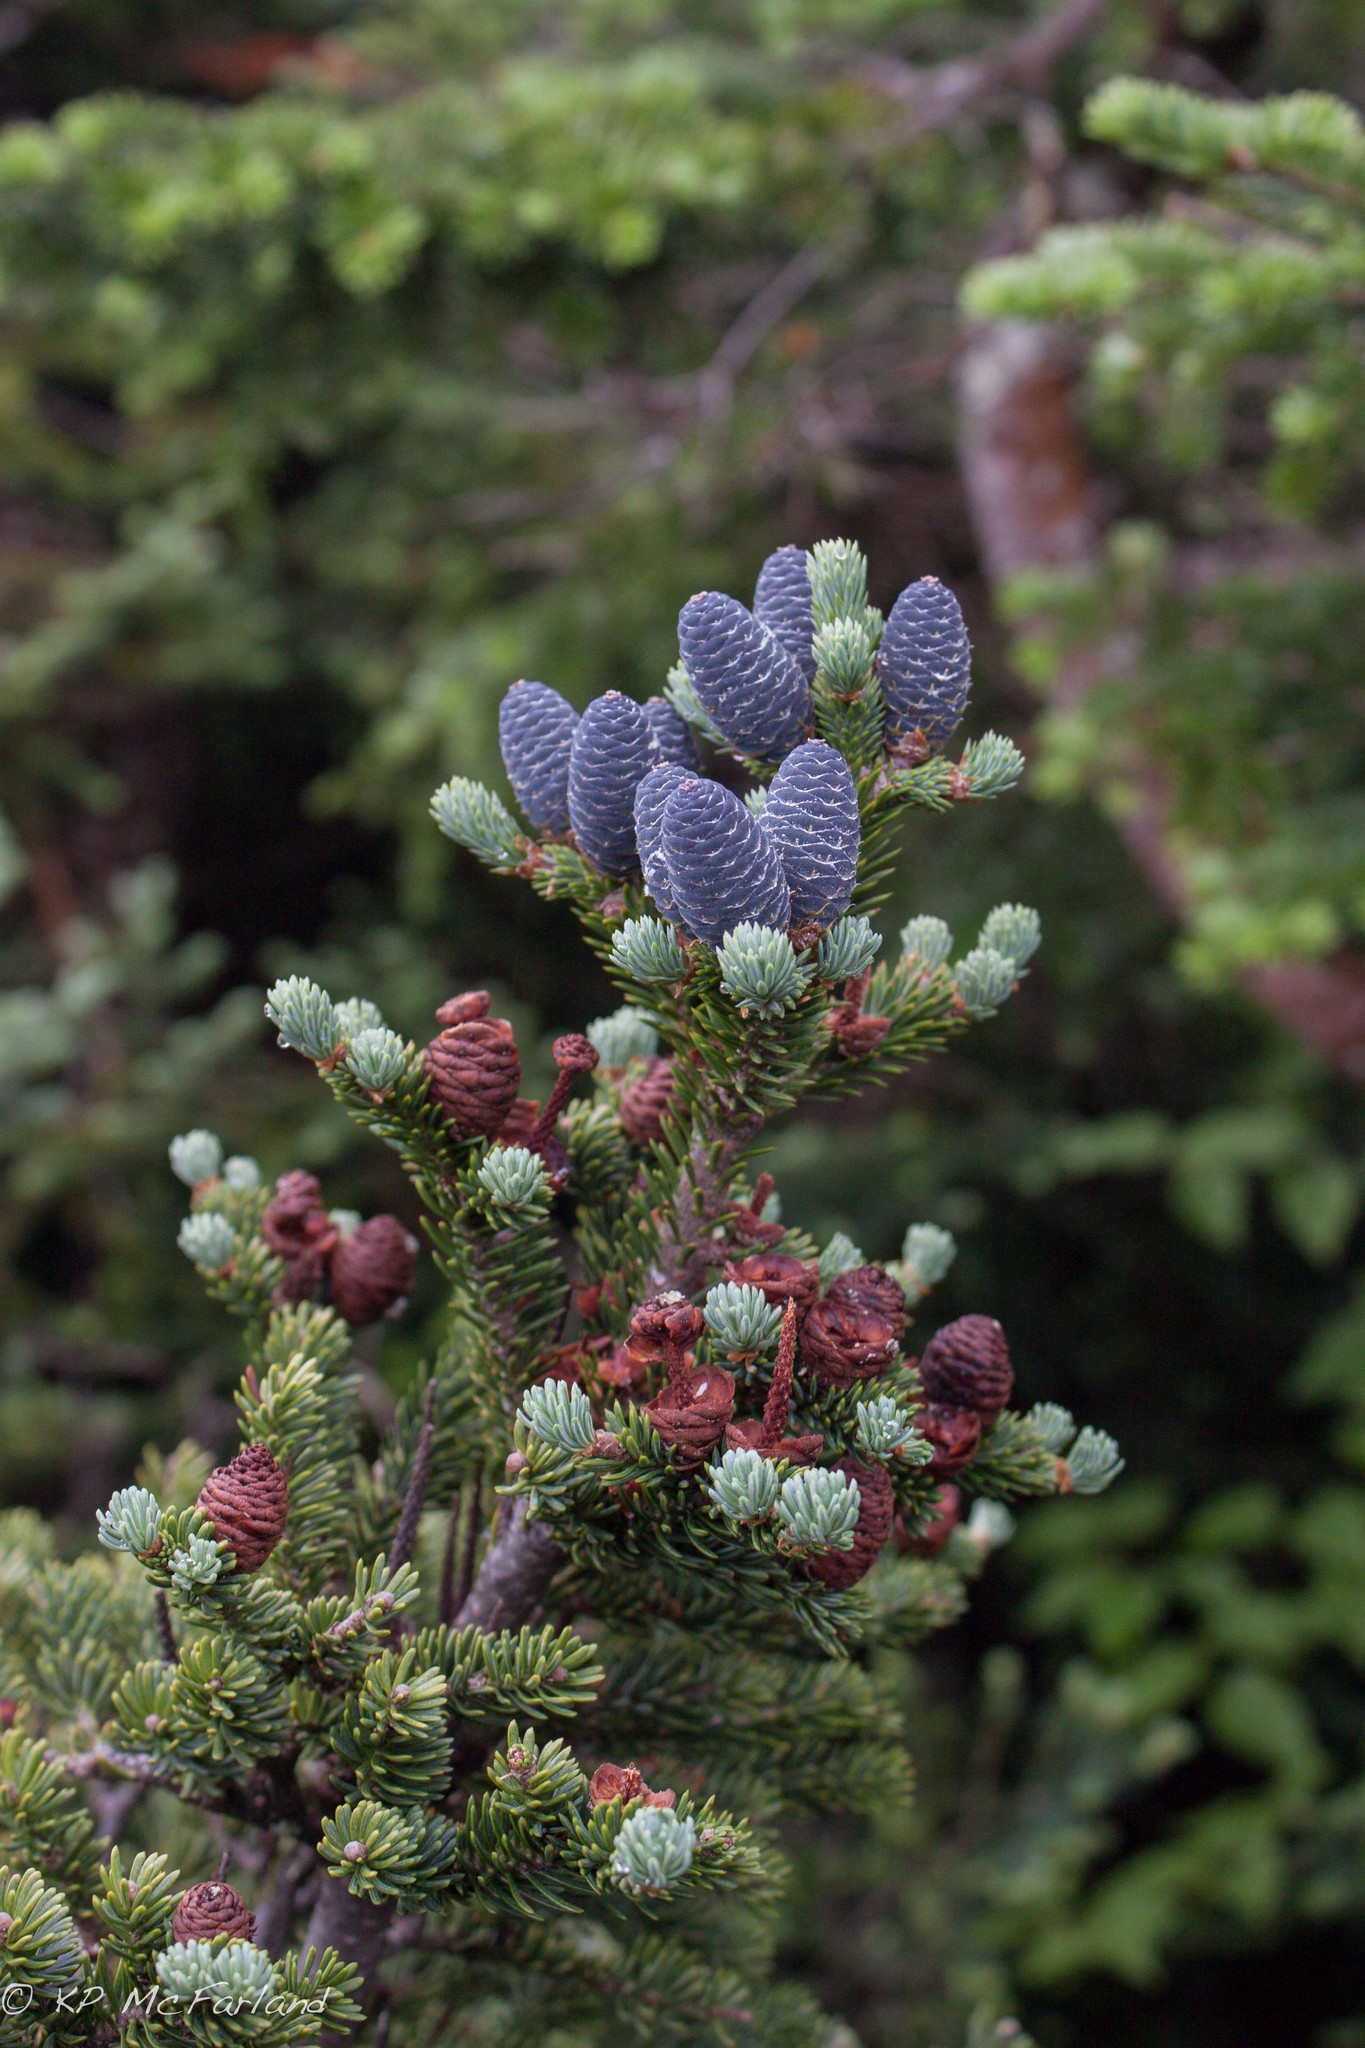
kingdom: Plantae
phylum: Tracheophyta
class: Pinopsida
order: Pinales
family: Pinaceae
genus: Abies
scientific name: Abies balsamea
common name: Balsam fir
